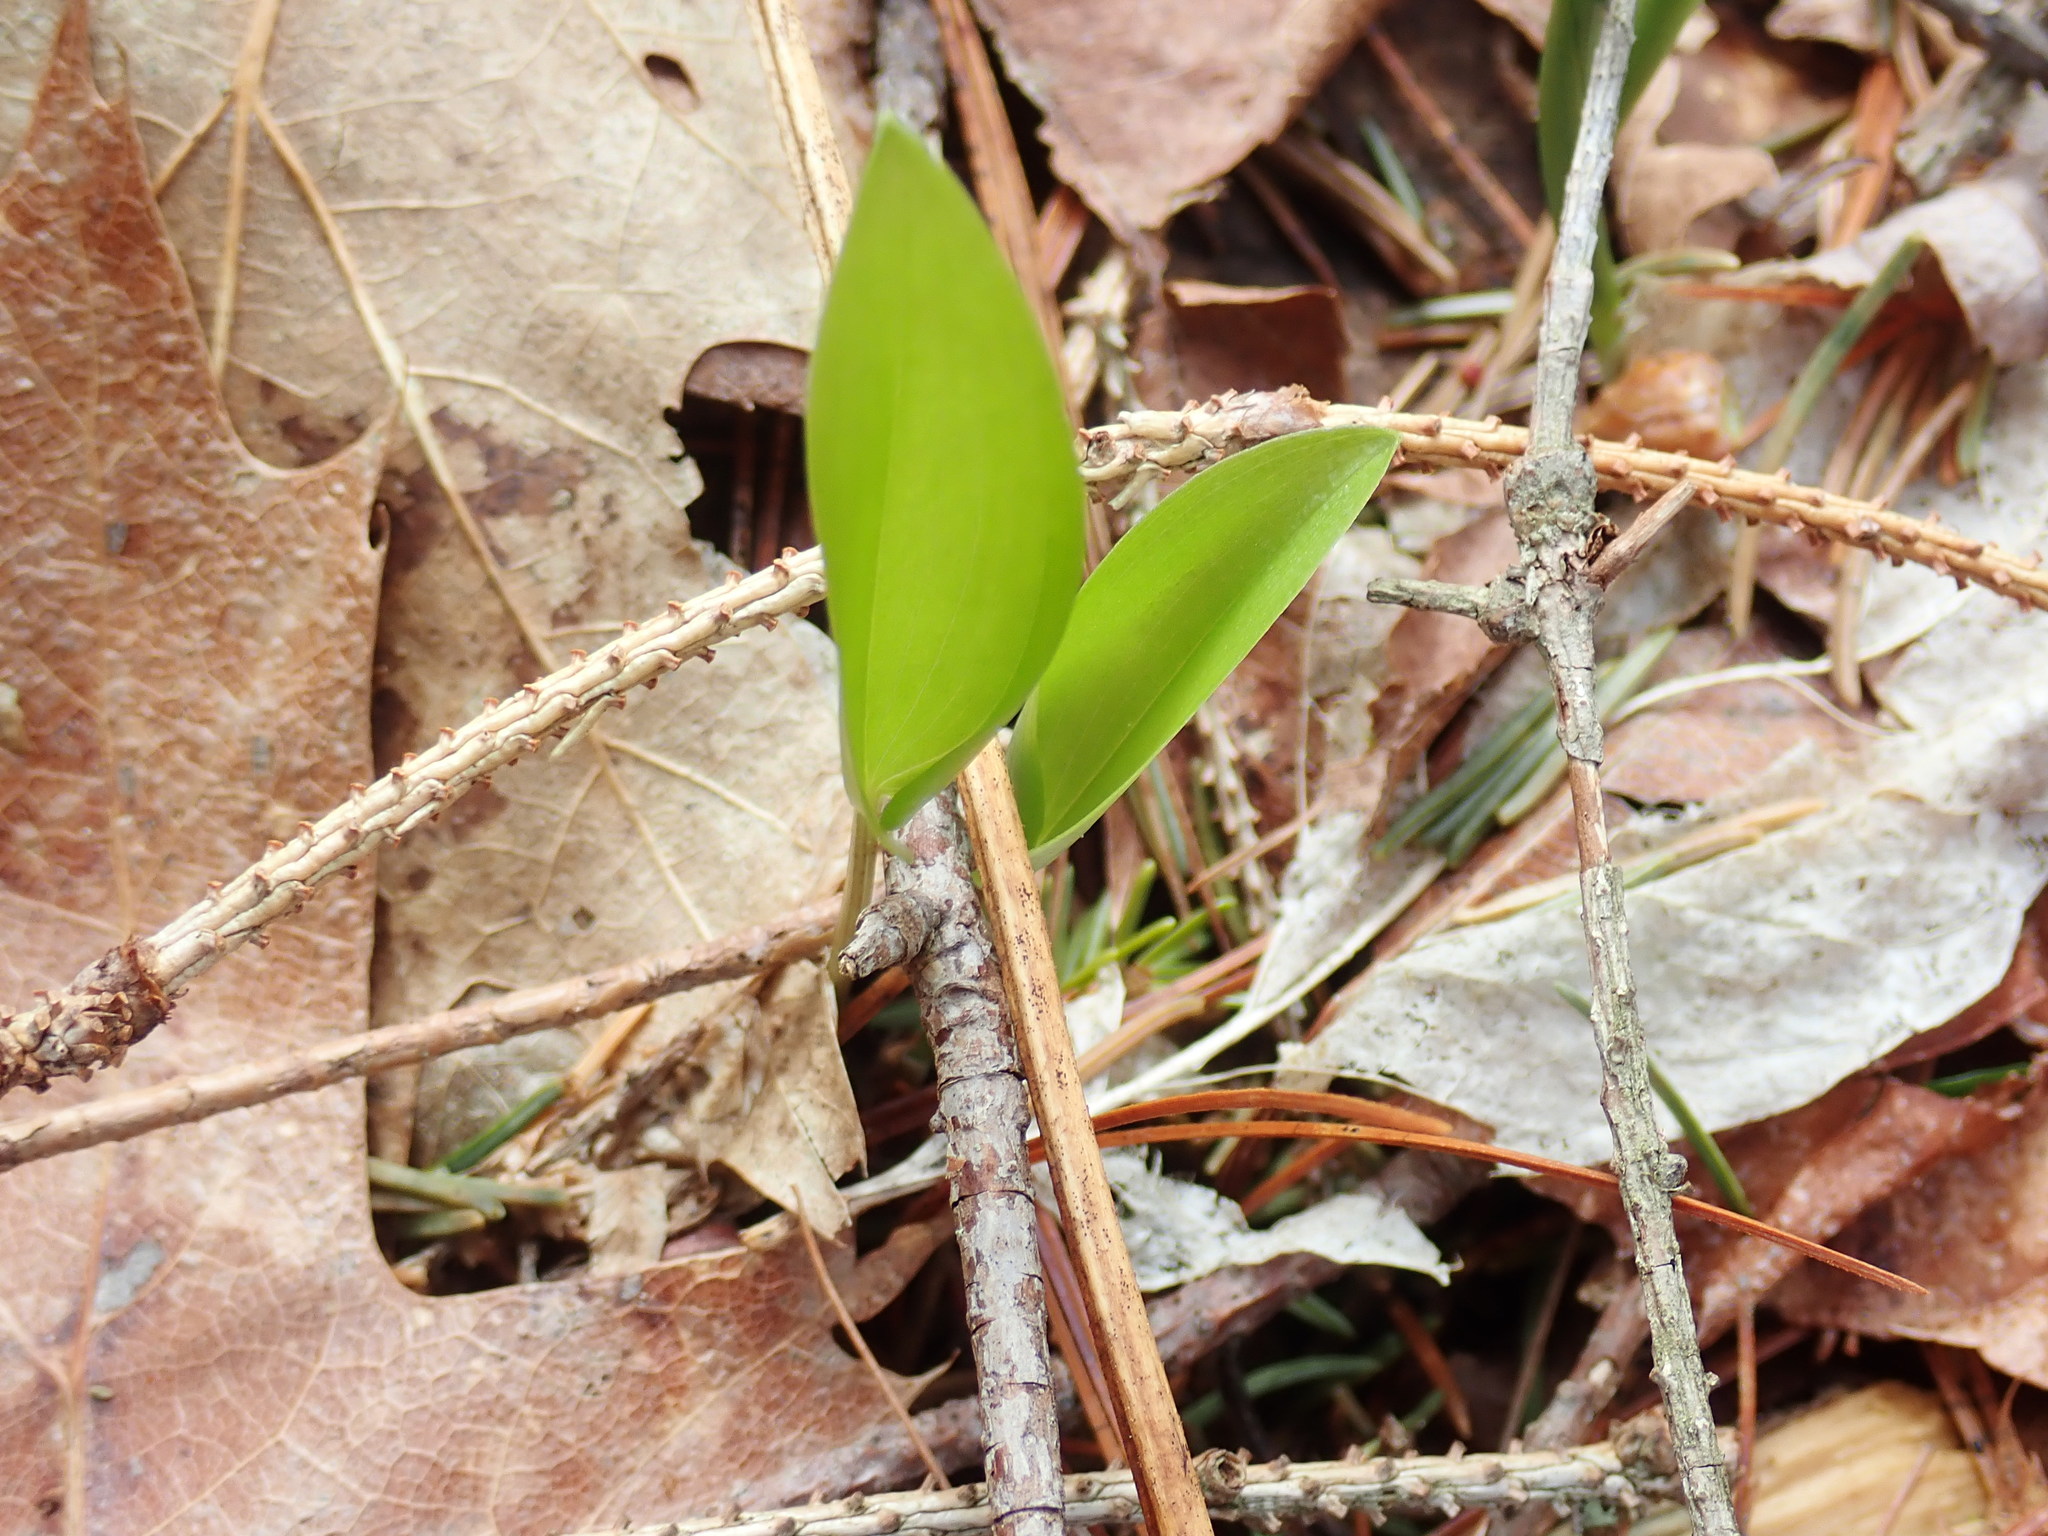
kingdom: Plantae
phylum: Tracheophyta
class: Liliopsida
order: Asparagales
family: Asparagaceae
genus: Maianthemum
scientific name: Maianthemum canadense
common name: False lily-of-the-valley
